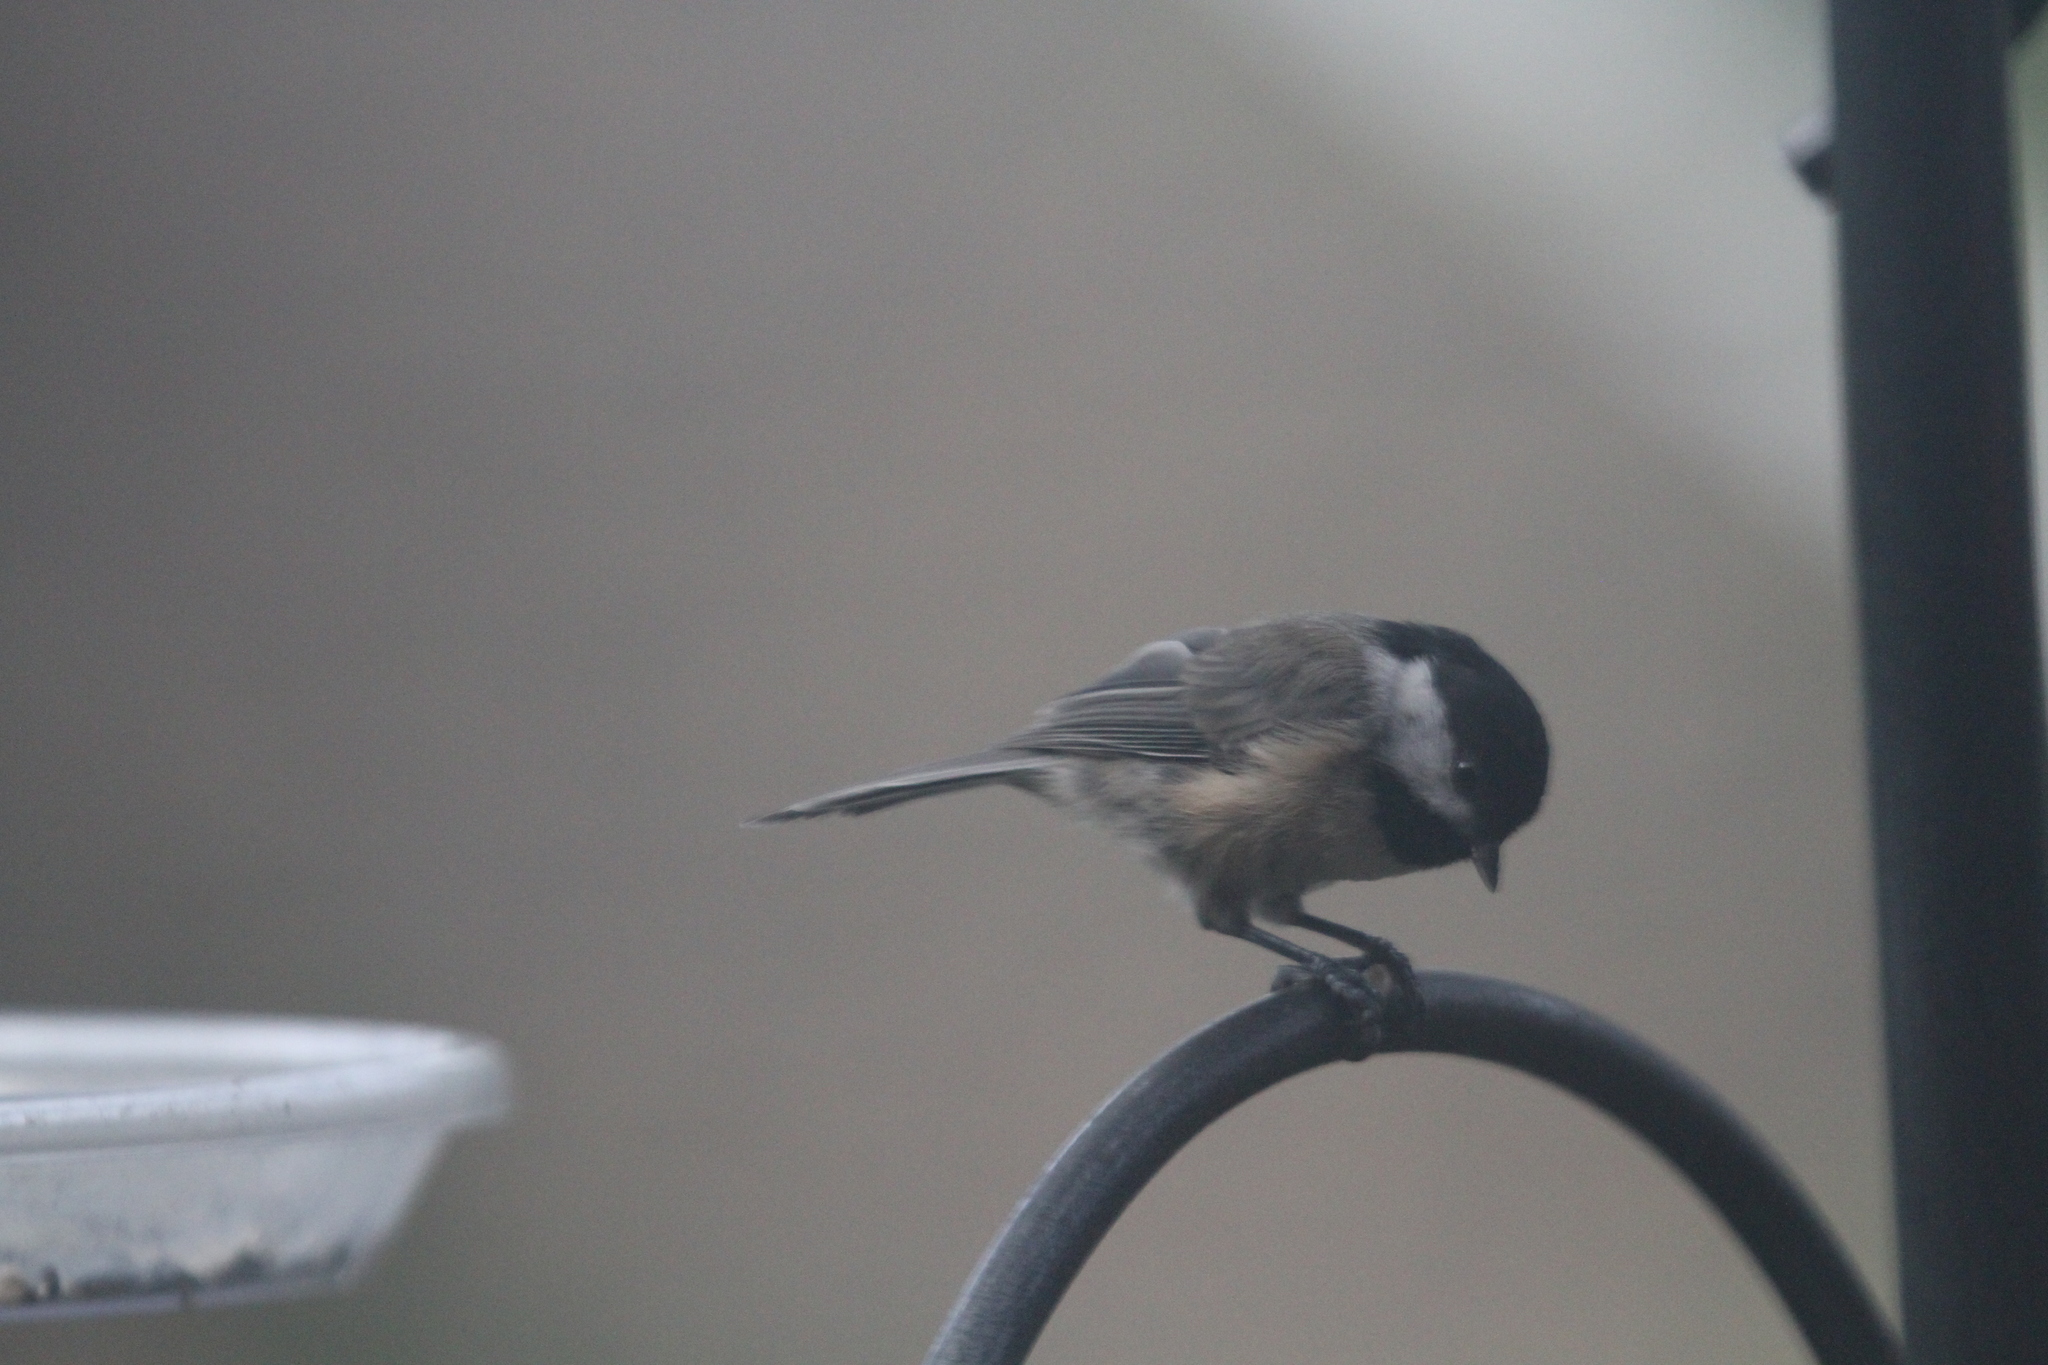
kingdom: Animalia
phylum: Chordata
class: Aves
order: Passeriformes
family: Paridae
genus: Poecile
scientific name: Poecile carolinensis
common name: Carolina chickadee
